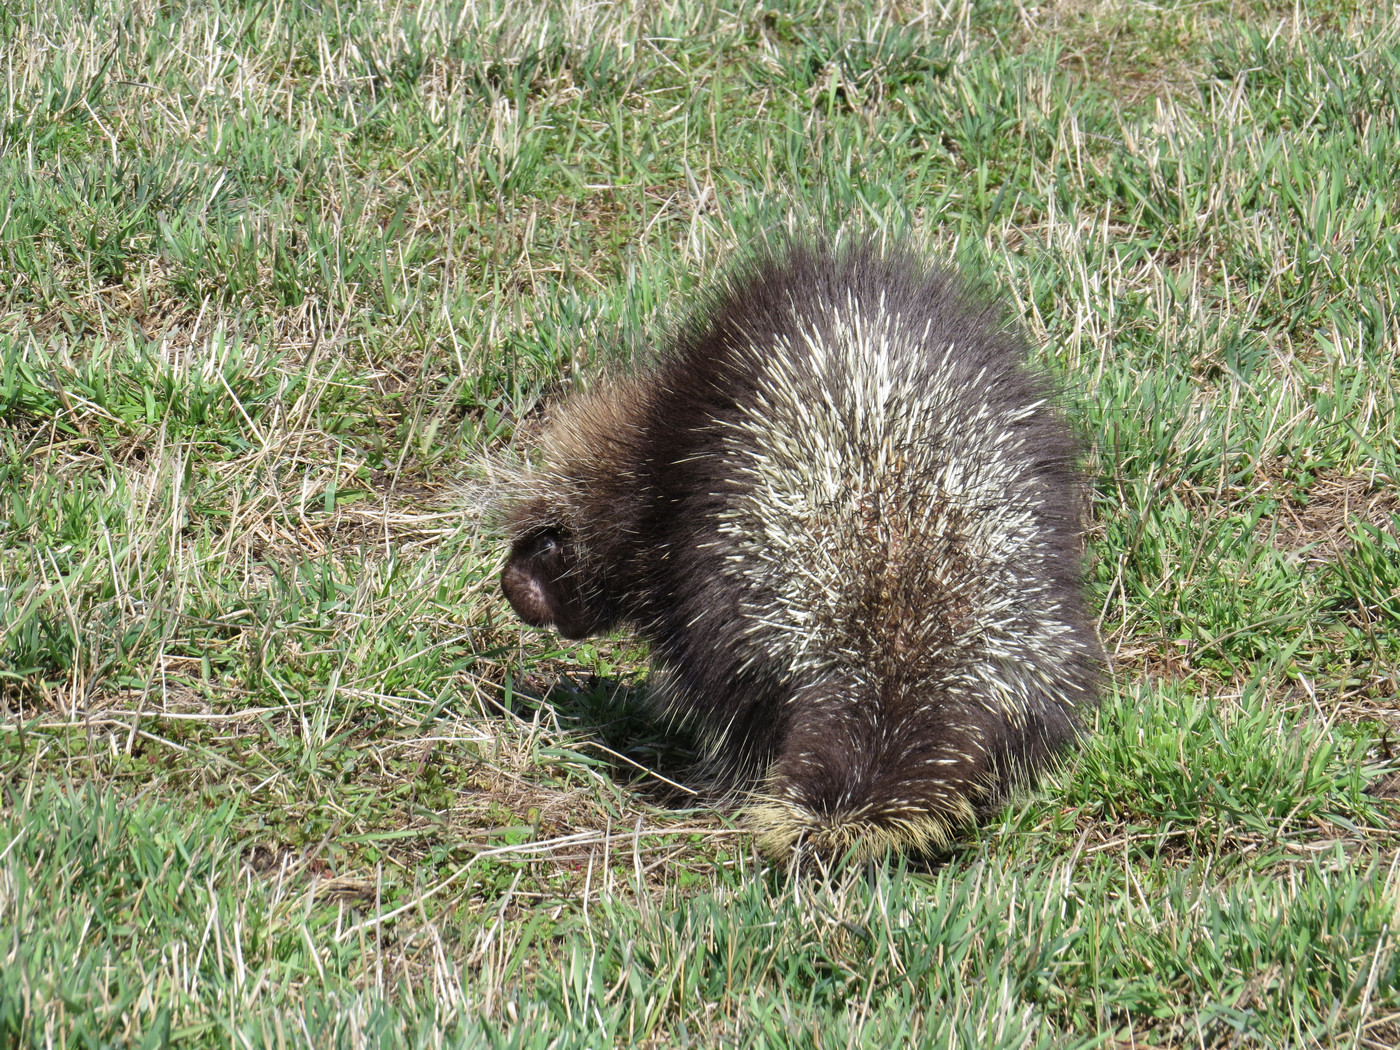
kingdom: Animalia
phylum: Chordata
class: Mammalia
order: Rodentia
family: Erethizontidae
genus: Erethizon
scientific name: Erethizon dorsatus
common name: North american porcupine
